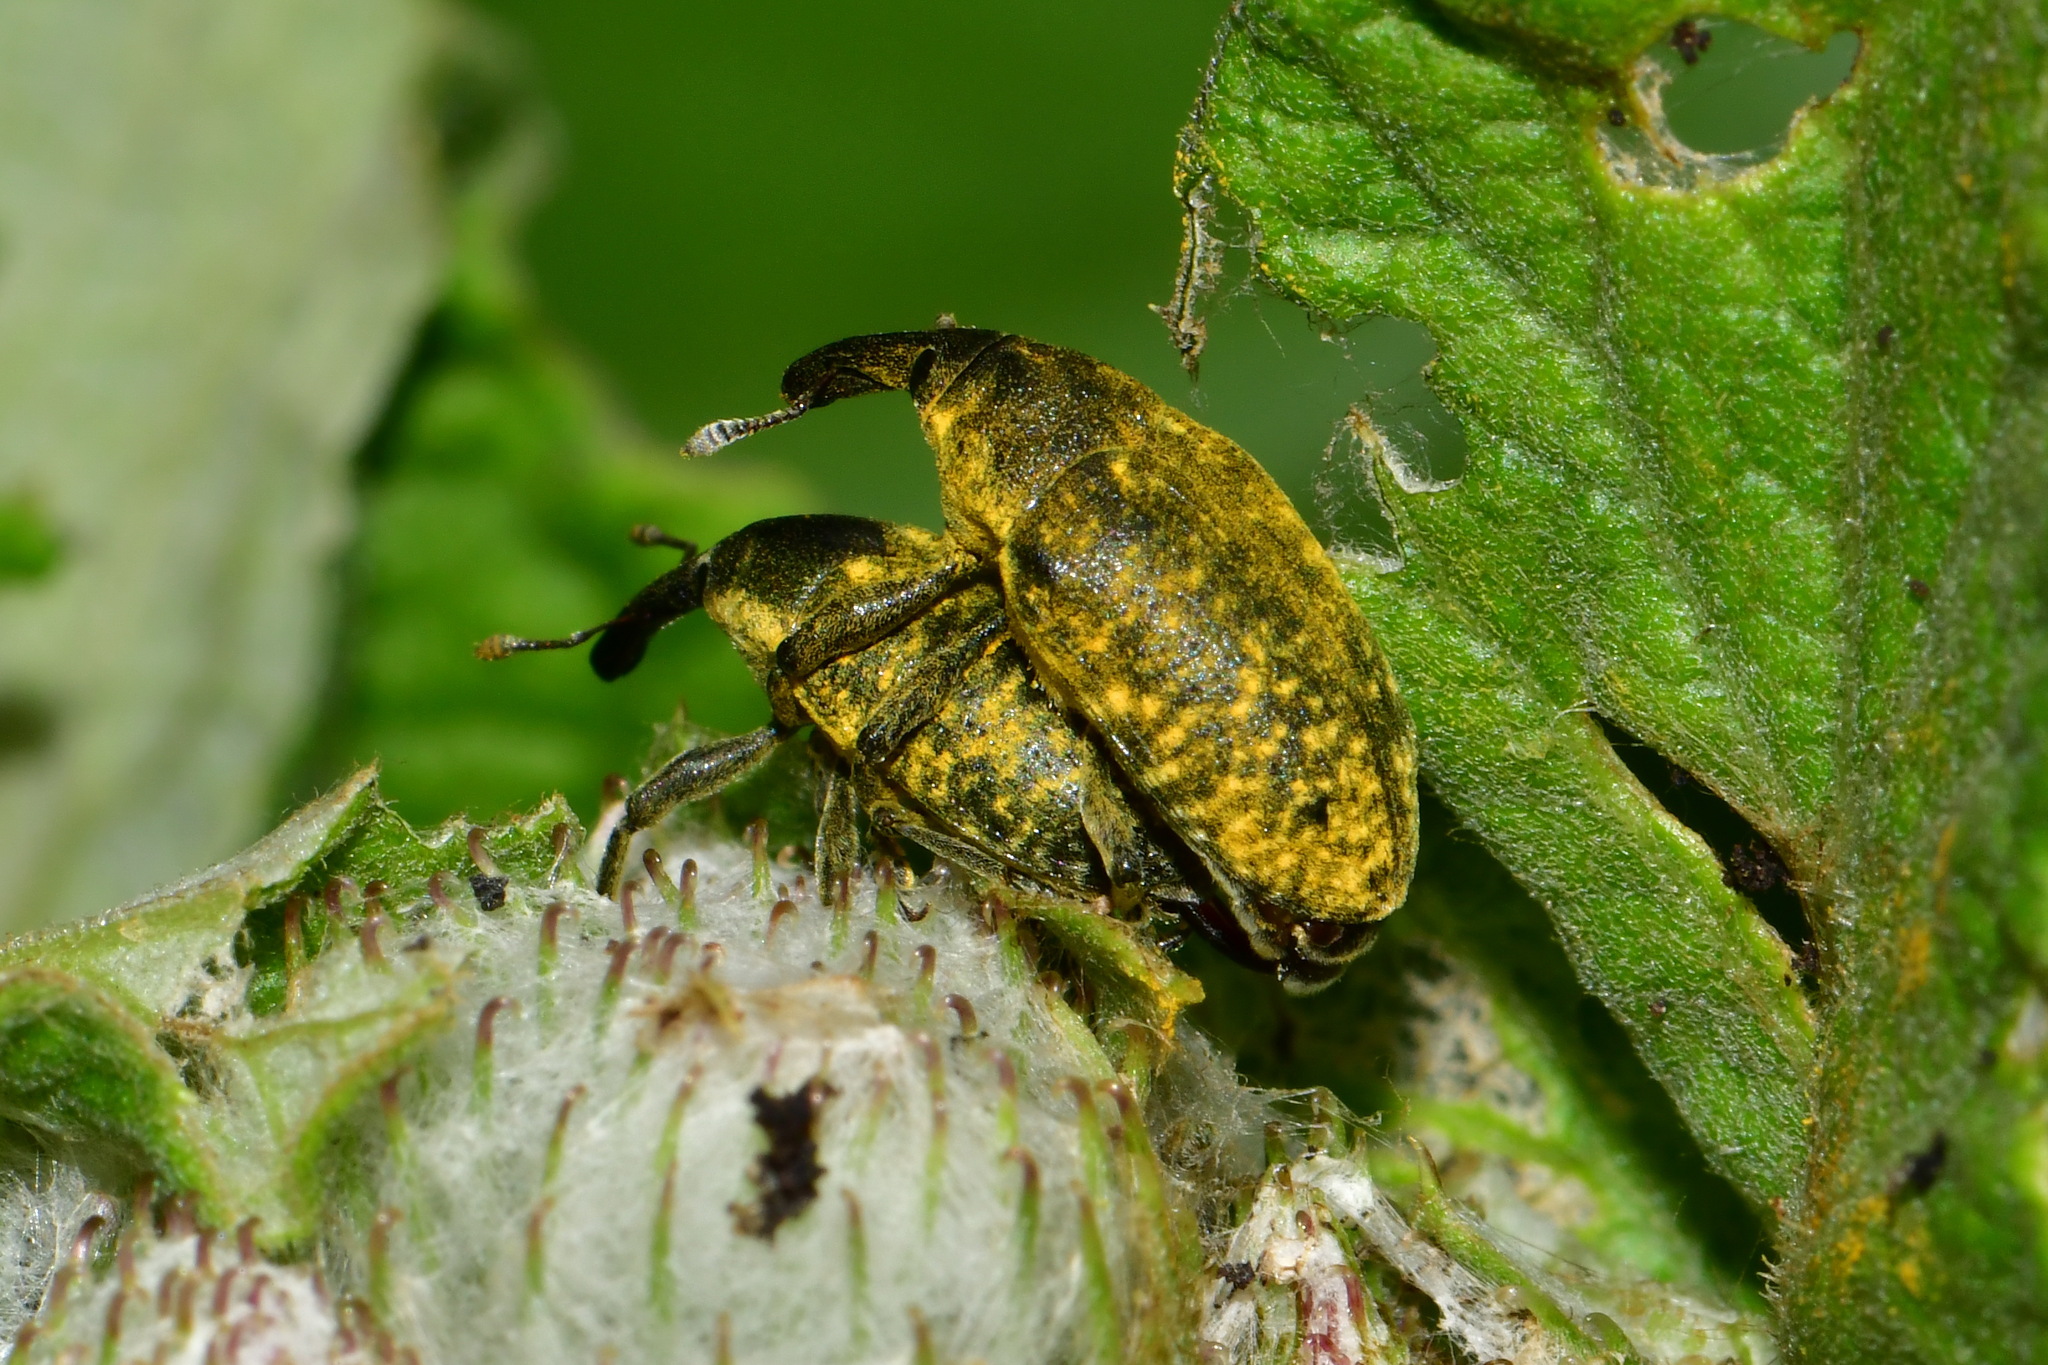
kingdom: Animalia
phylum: Arthropoda
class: Insecta
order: Coleoptera
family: Curculionidae
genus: Larinus
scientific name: Larinus sturnus
